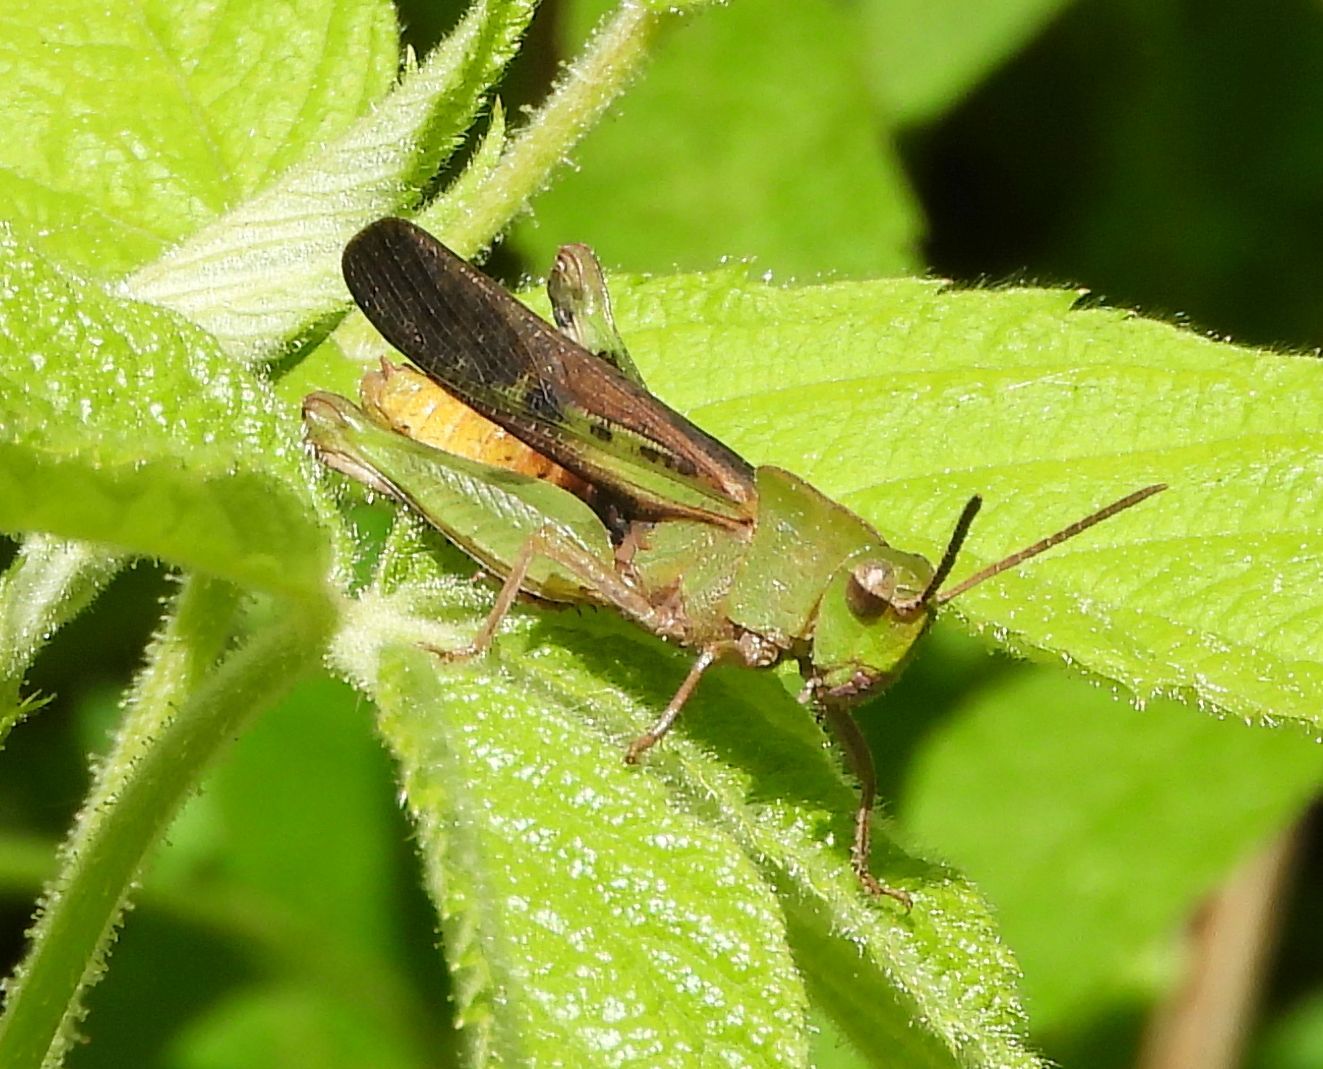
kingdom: Animalia
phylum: Arthropoda
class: Insecta
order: Orthoptera
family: Acrididae
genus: Chortophaga
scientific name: Chortophaga viridifasciata
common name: Green-striped grasshopper
